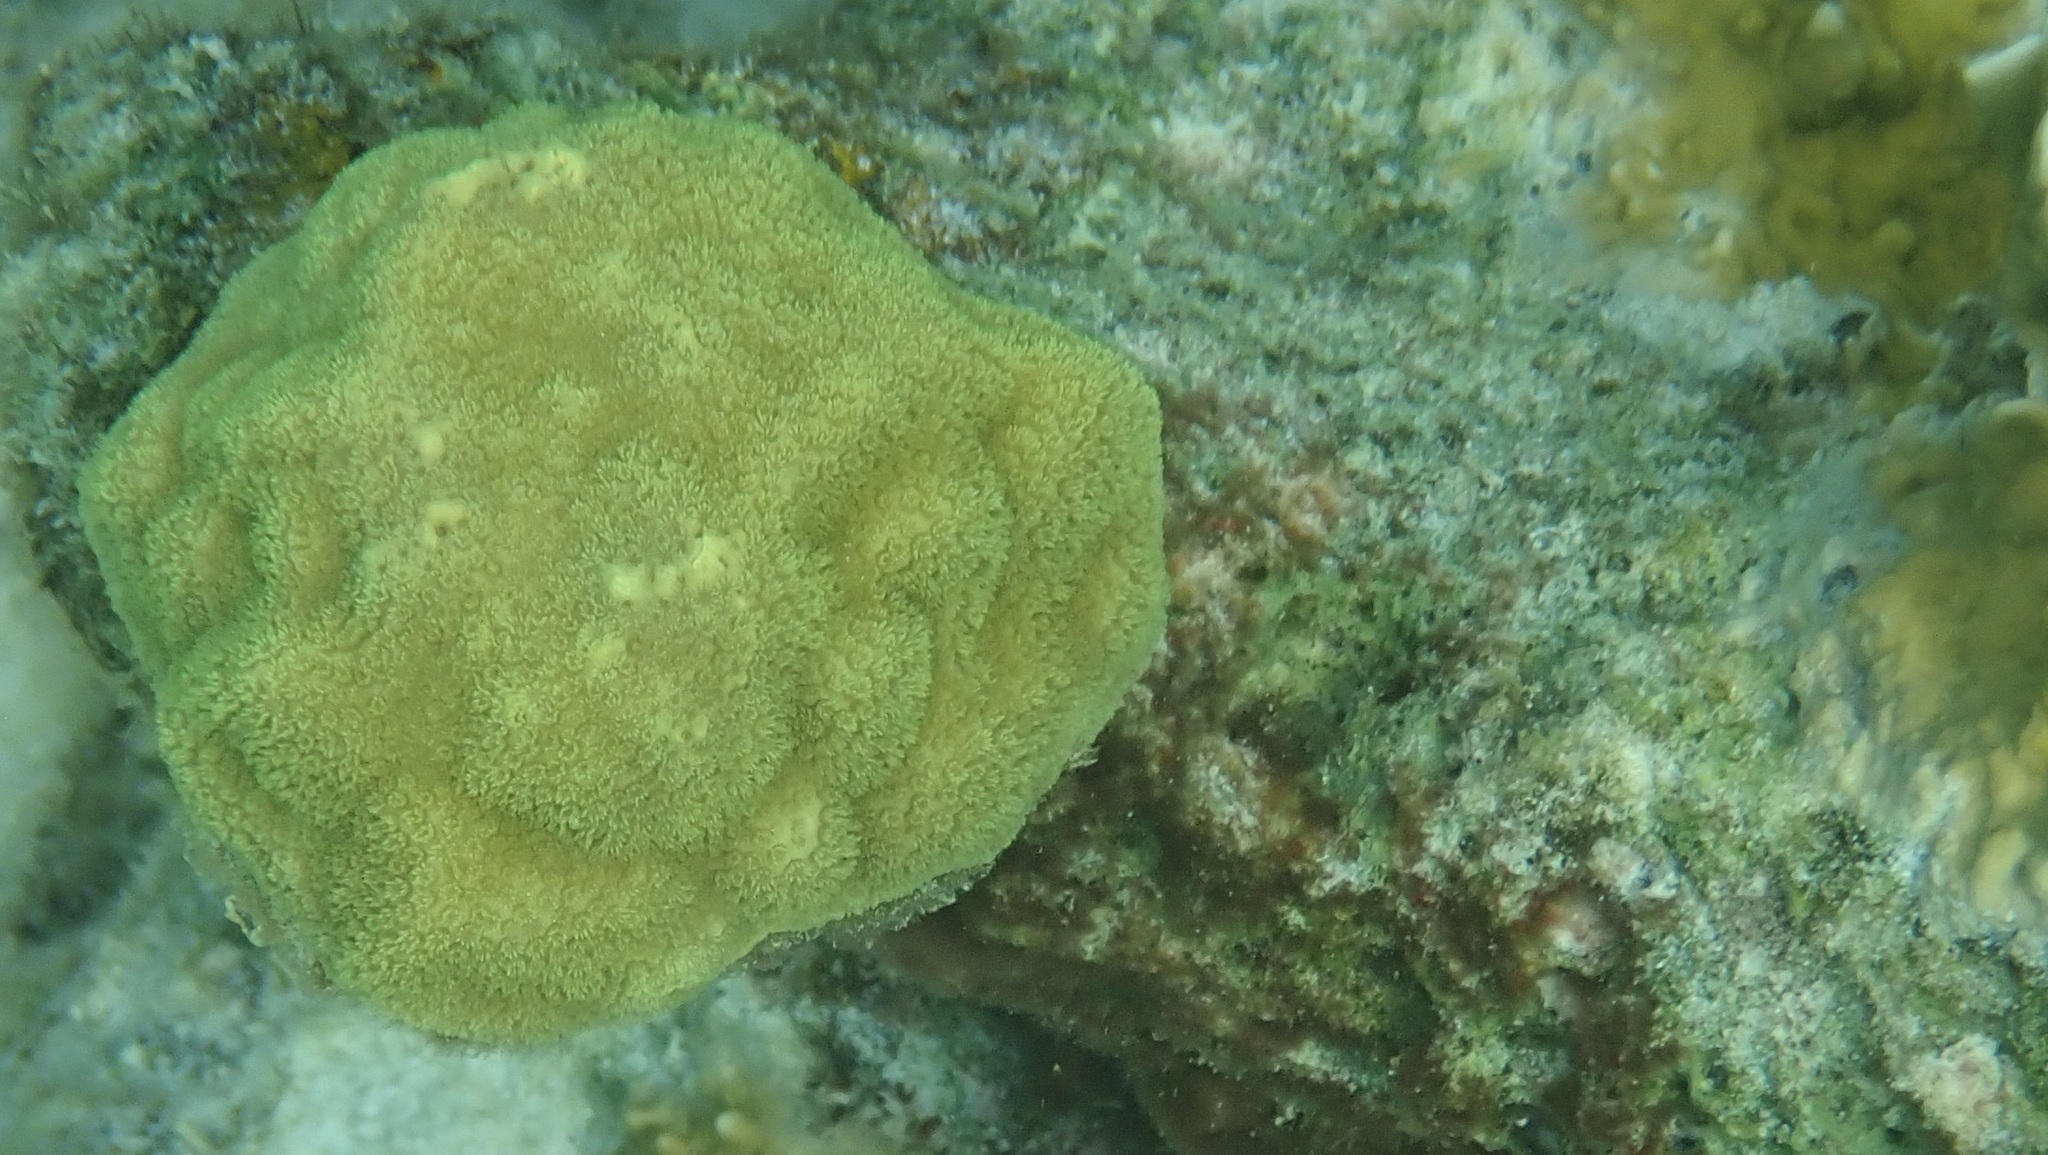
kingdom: Animalia
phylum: Cnidaria
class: Anthozoa
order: Scleractinia
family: Poritidae
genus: Porites
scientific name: Porites astreoides
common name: Mustard hill coral
